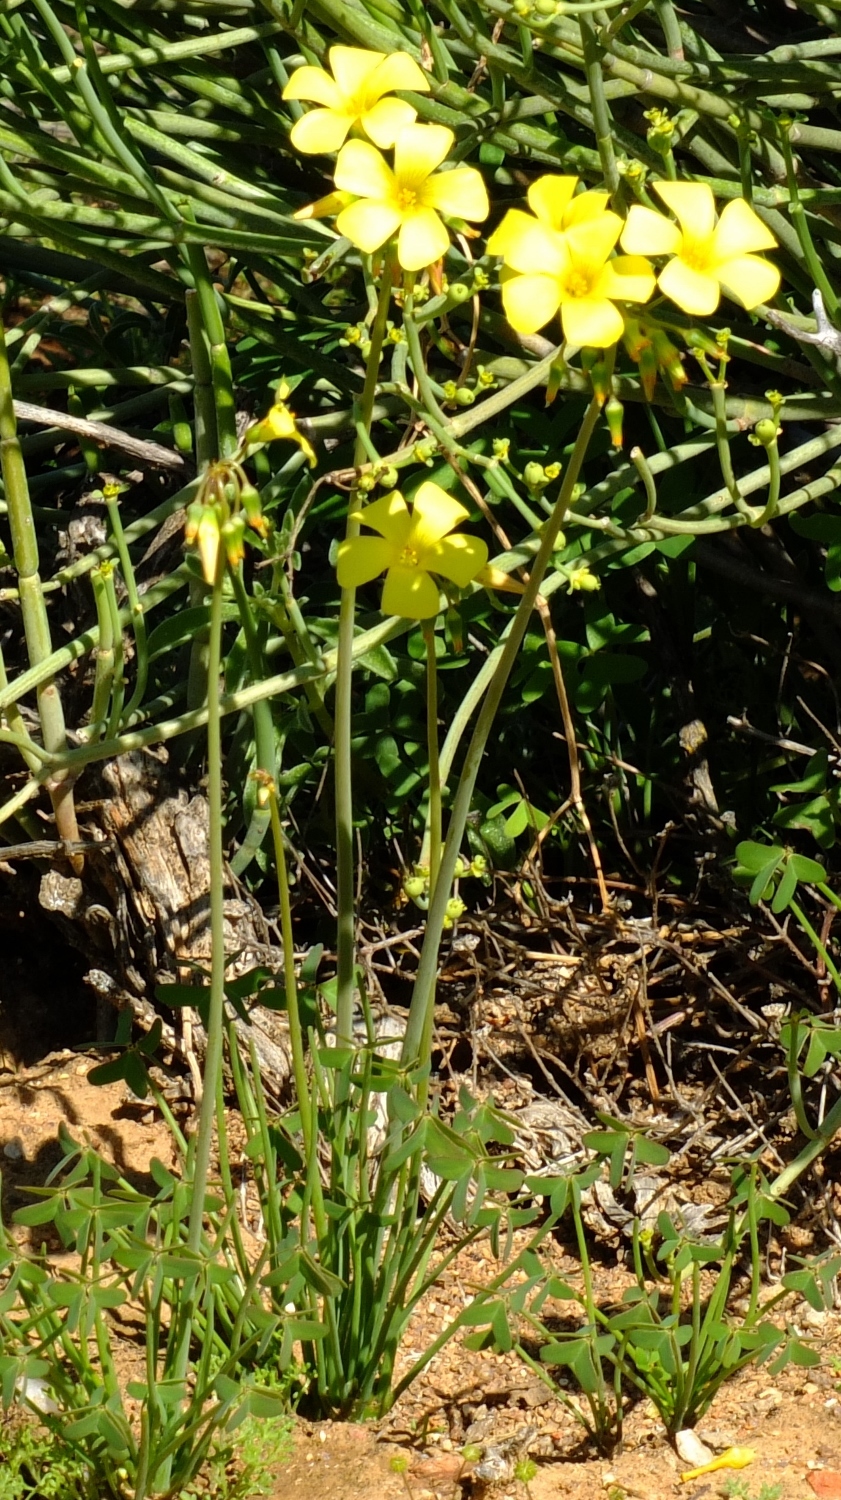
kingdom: Plantae
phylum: Tracheophyta
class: Magnoliopsida
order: Oxalidales
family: Oxalidaceae
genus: Oxalis
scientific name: Oxalis pes-caprae
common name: Bermuda-buttercup
